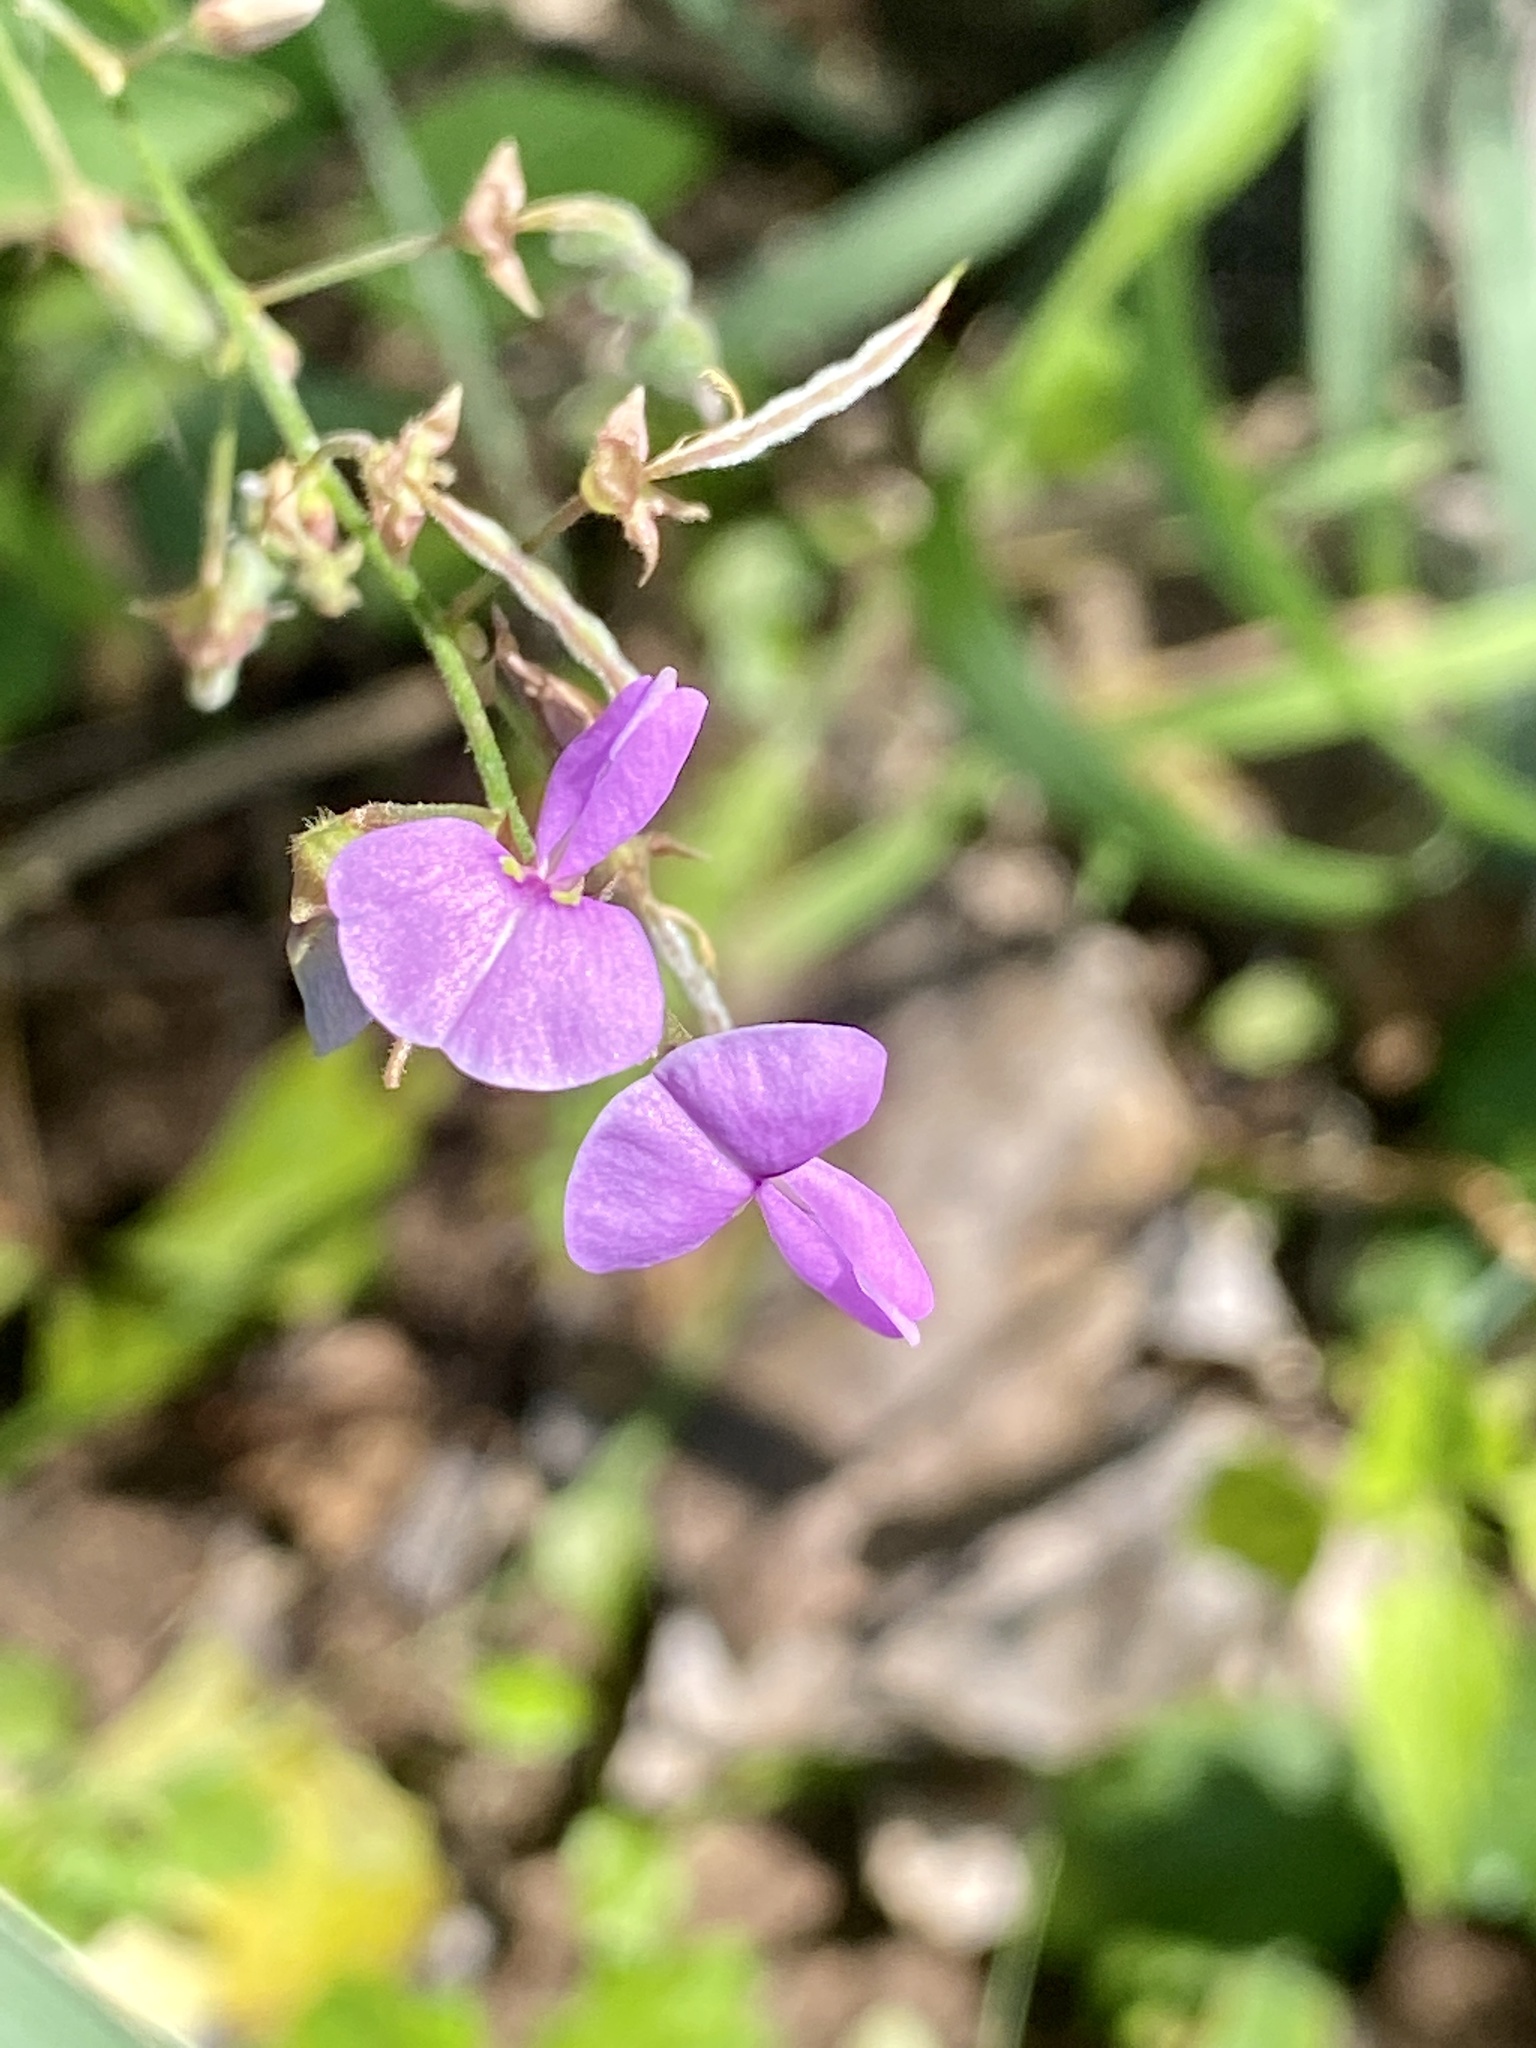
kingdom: Plantae
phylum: Tracheophyta
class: Magnoliopsida
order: Fabales
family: Fabaceae
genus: Desmodium
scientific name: Desmodium paniculatum
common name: Panicled tick-clover
